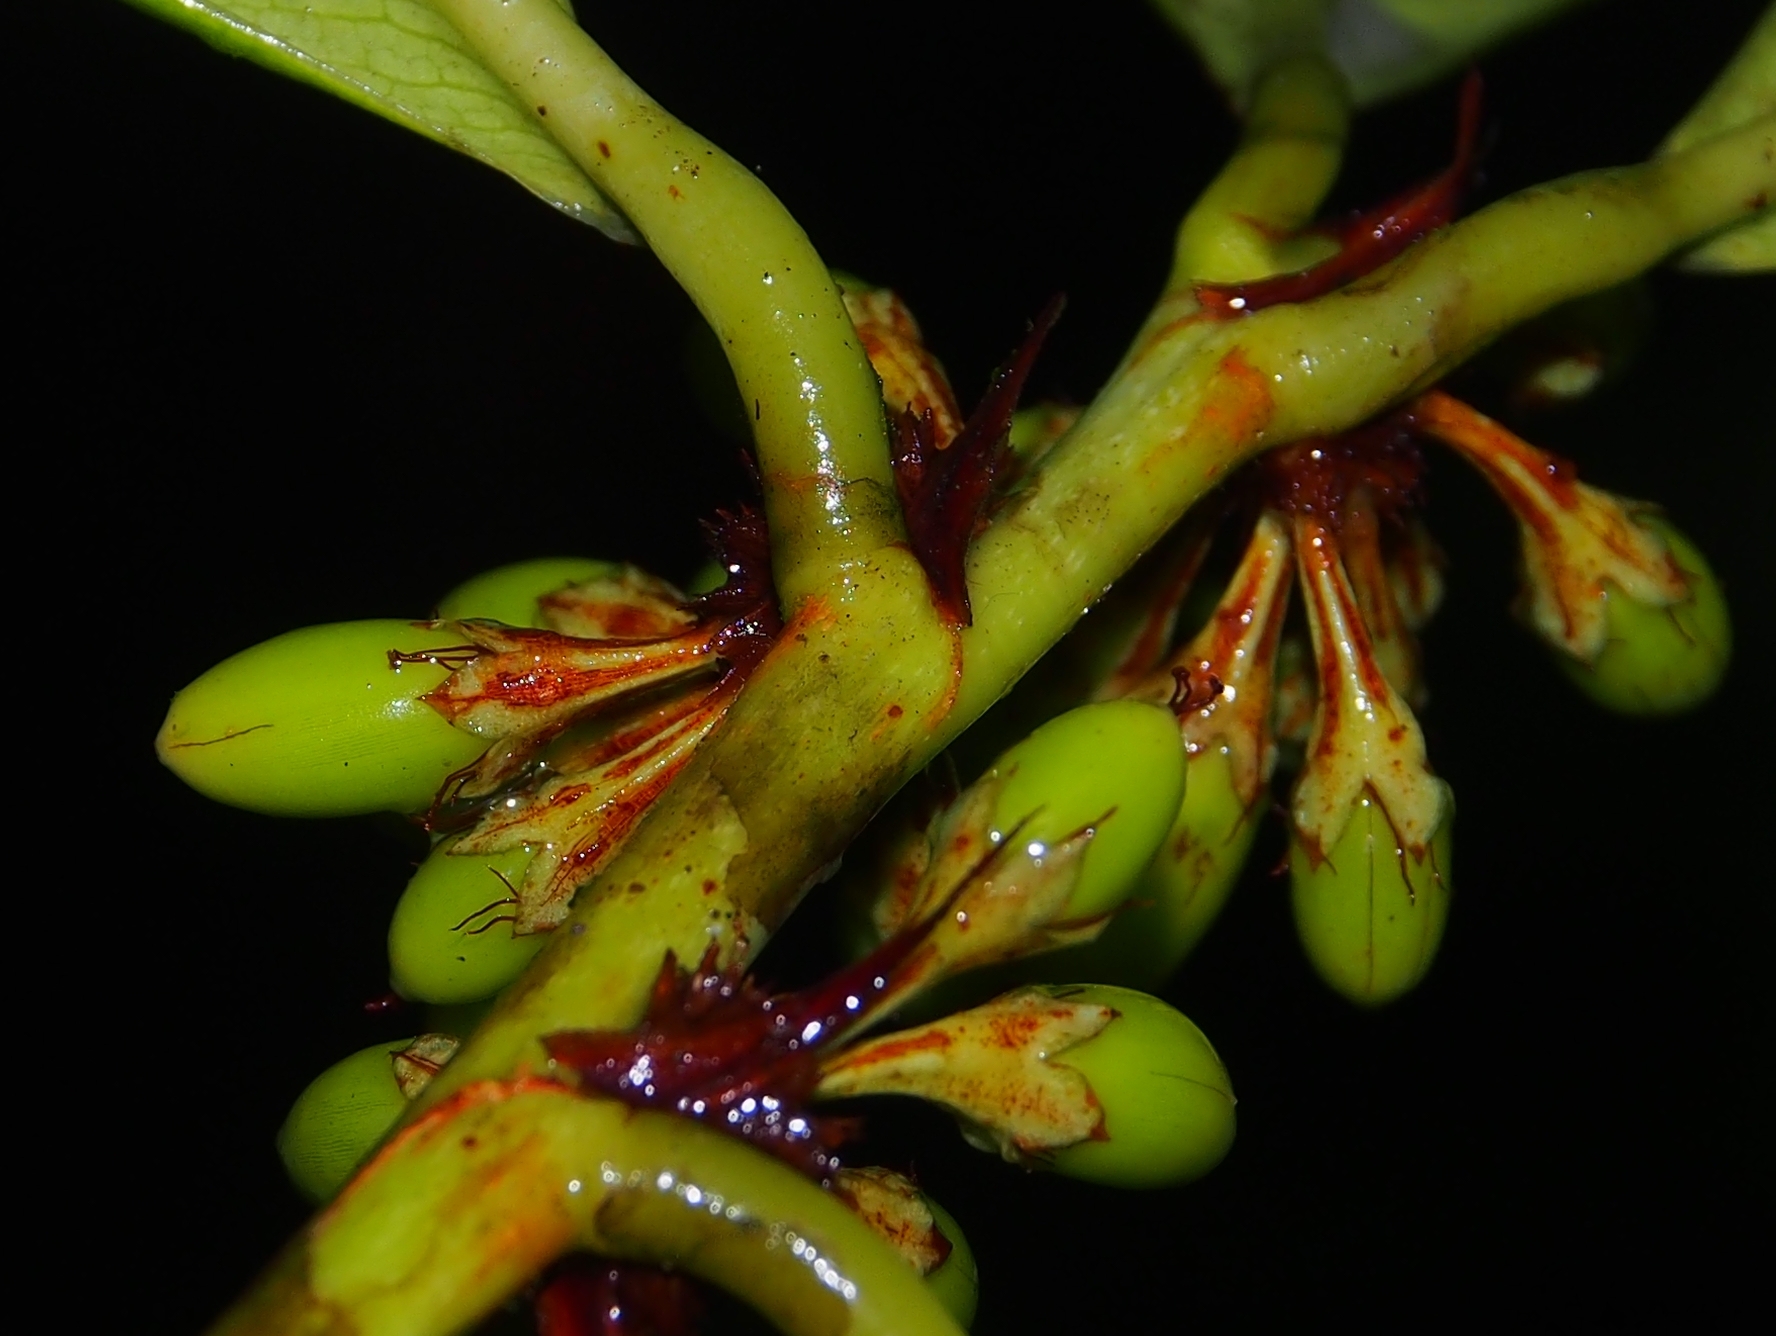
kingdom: Plantae
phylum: Tracheophyta
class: Magnoliopsida
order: Malpighiales
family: Erythroxylaceae
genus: Erythroxylum
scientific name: Erythroxylum macrophyllum
